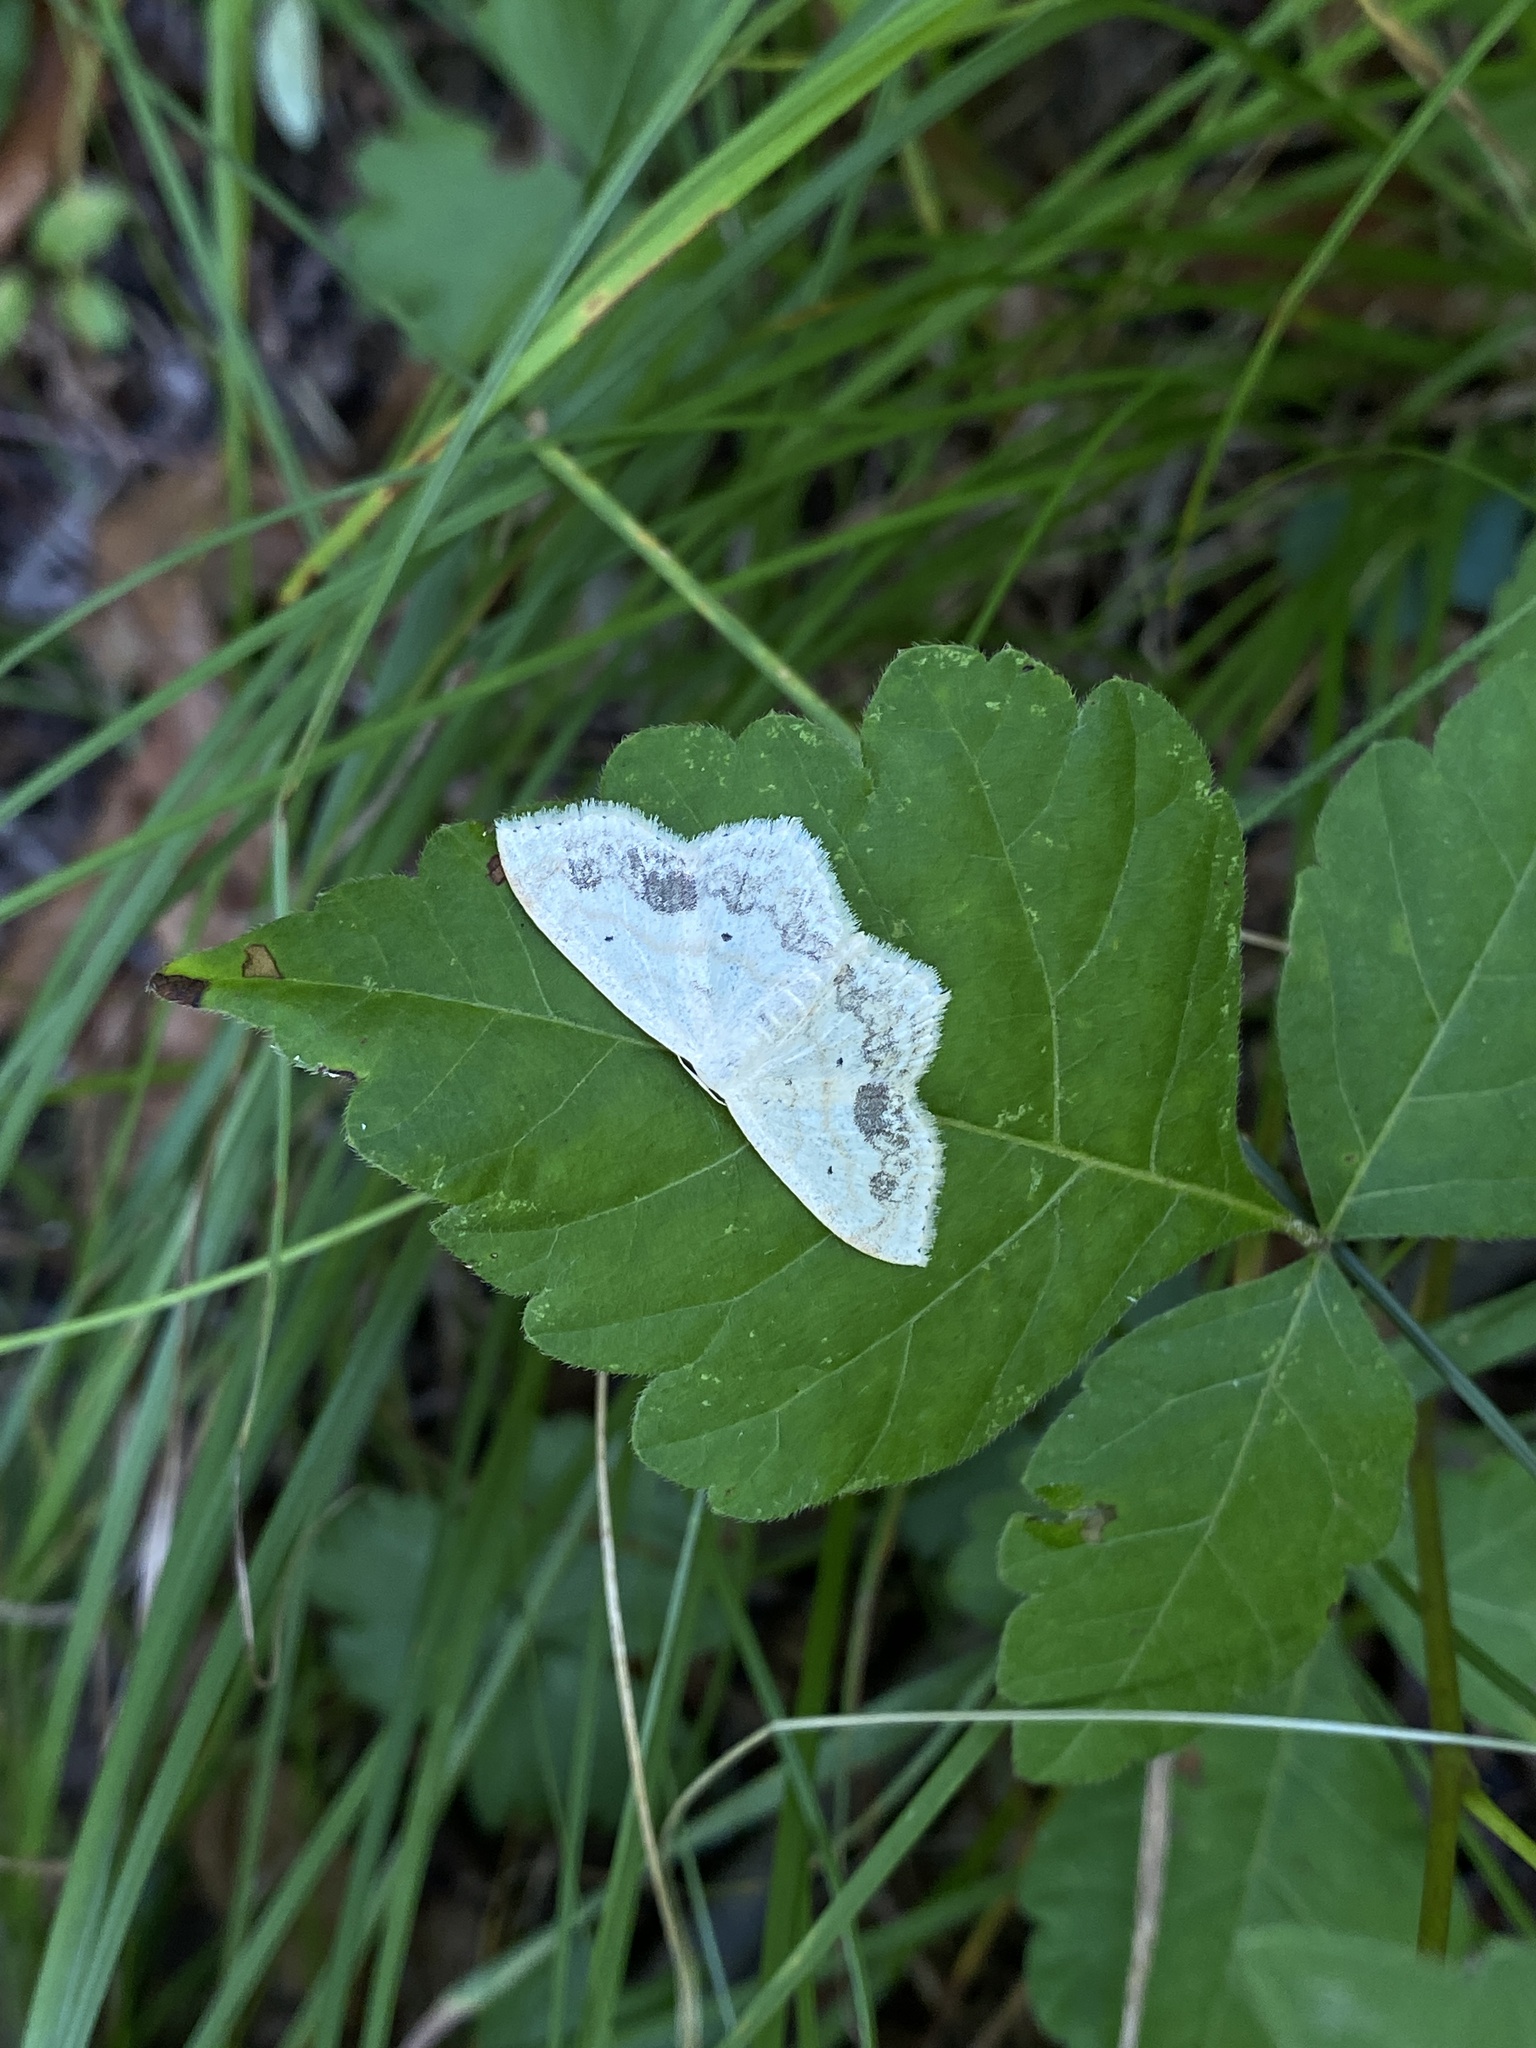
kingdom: Animalia
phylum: Arthropoda
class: Insecta
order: Lepidoptera
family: Geometridae
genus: Scopula
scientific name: Scopula limboundata
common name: Large lace border
